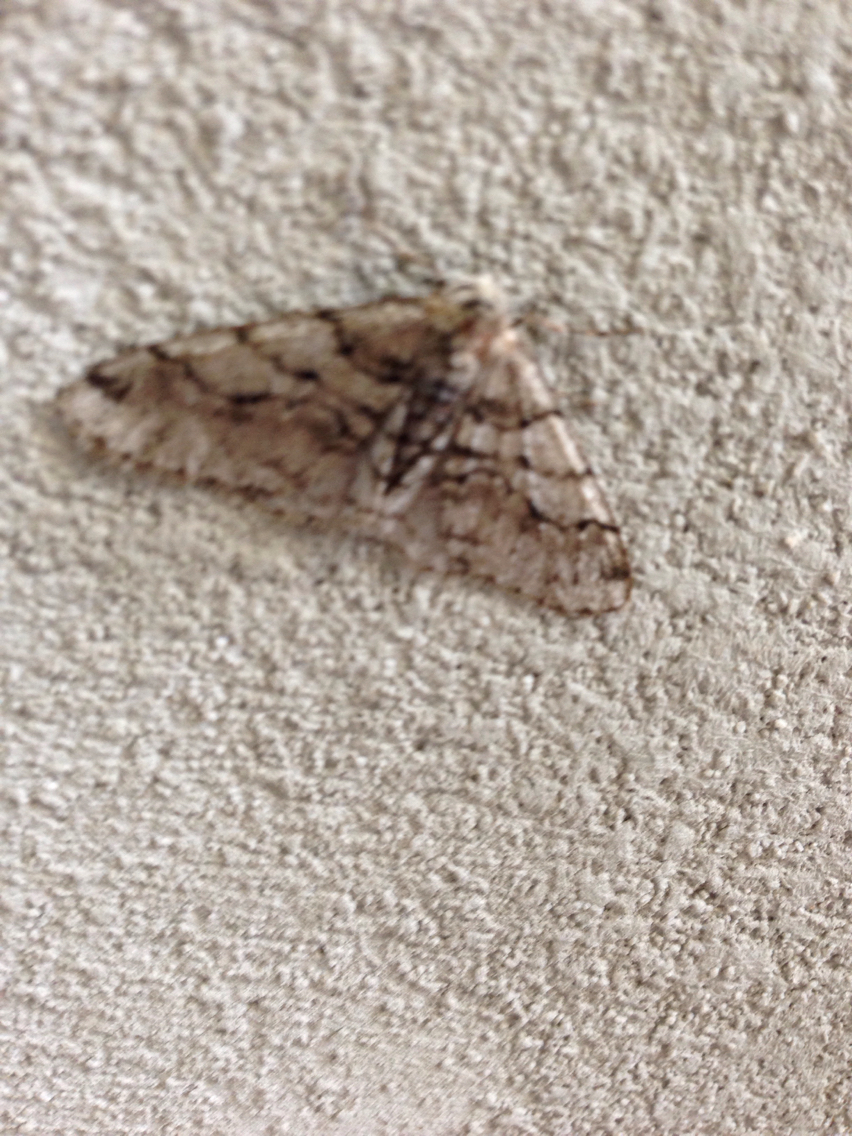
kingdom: Animalia
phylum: Arthropoda
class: Insecta
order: Lepidoptera
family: Geometridae
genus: Phigalia
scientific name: Phigalia titea
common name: Spiny looper
